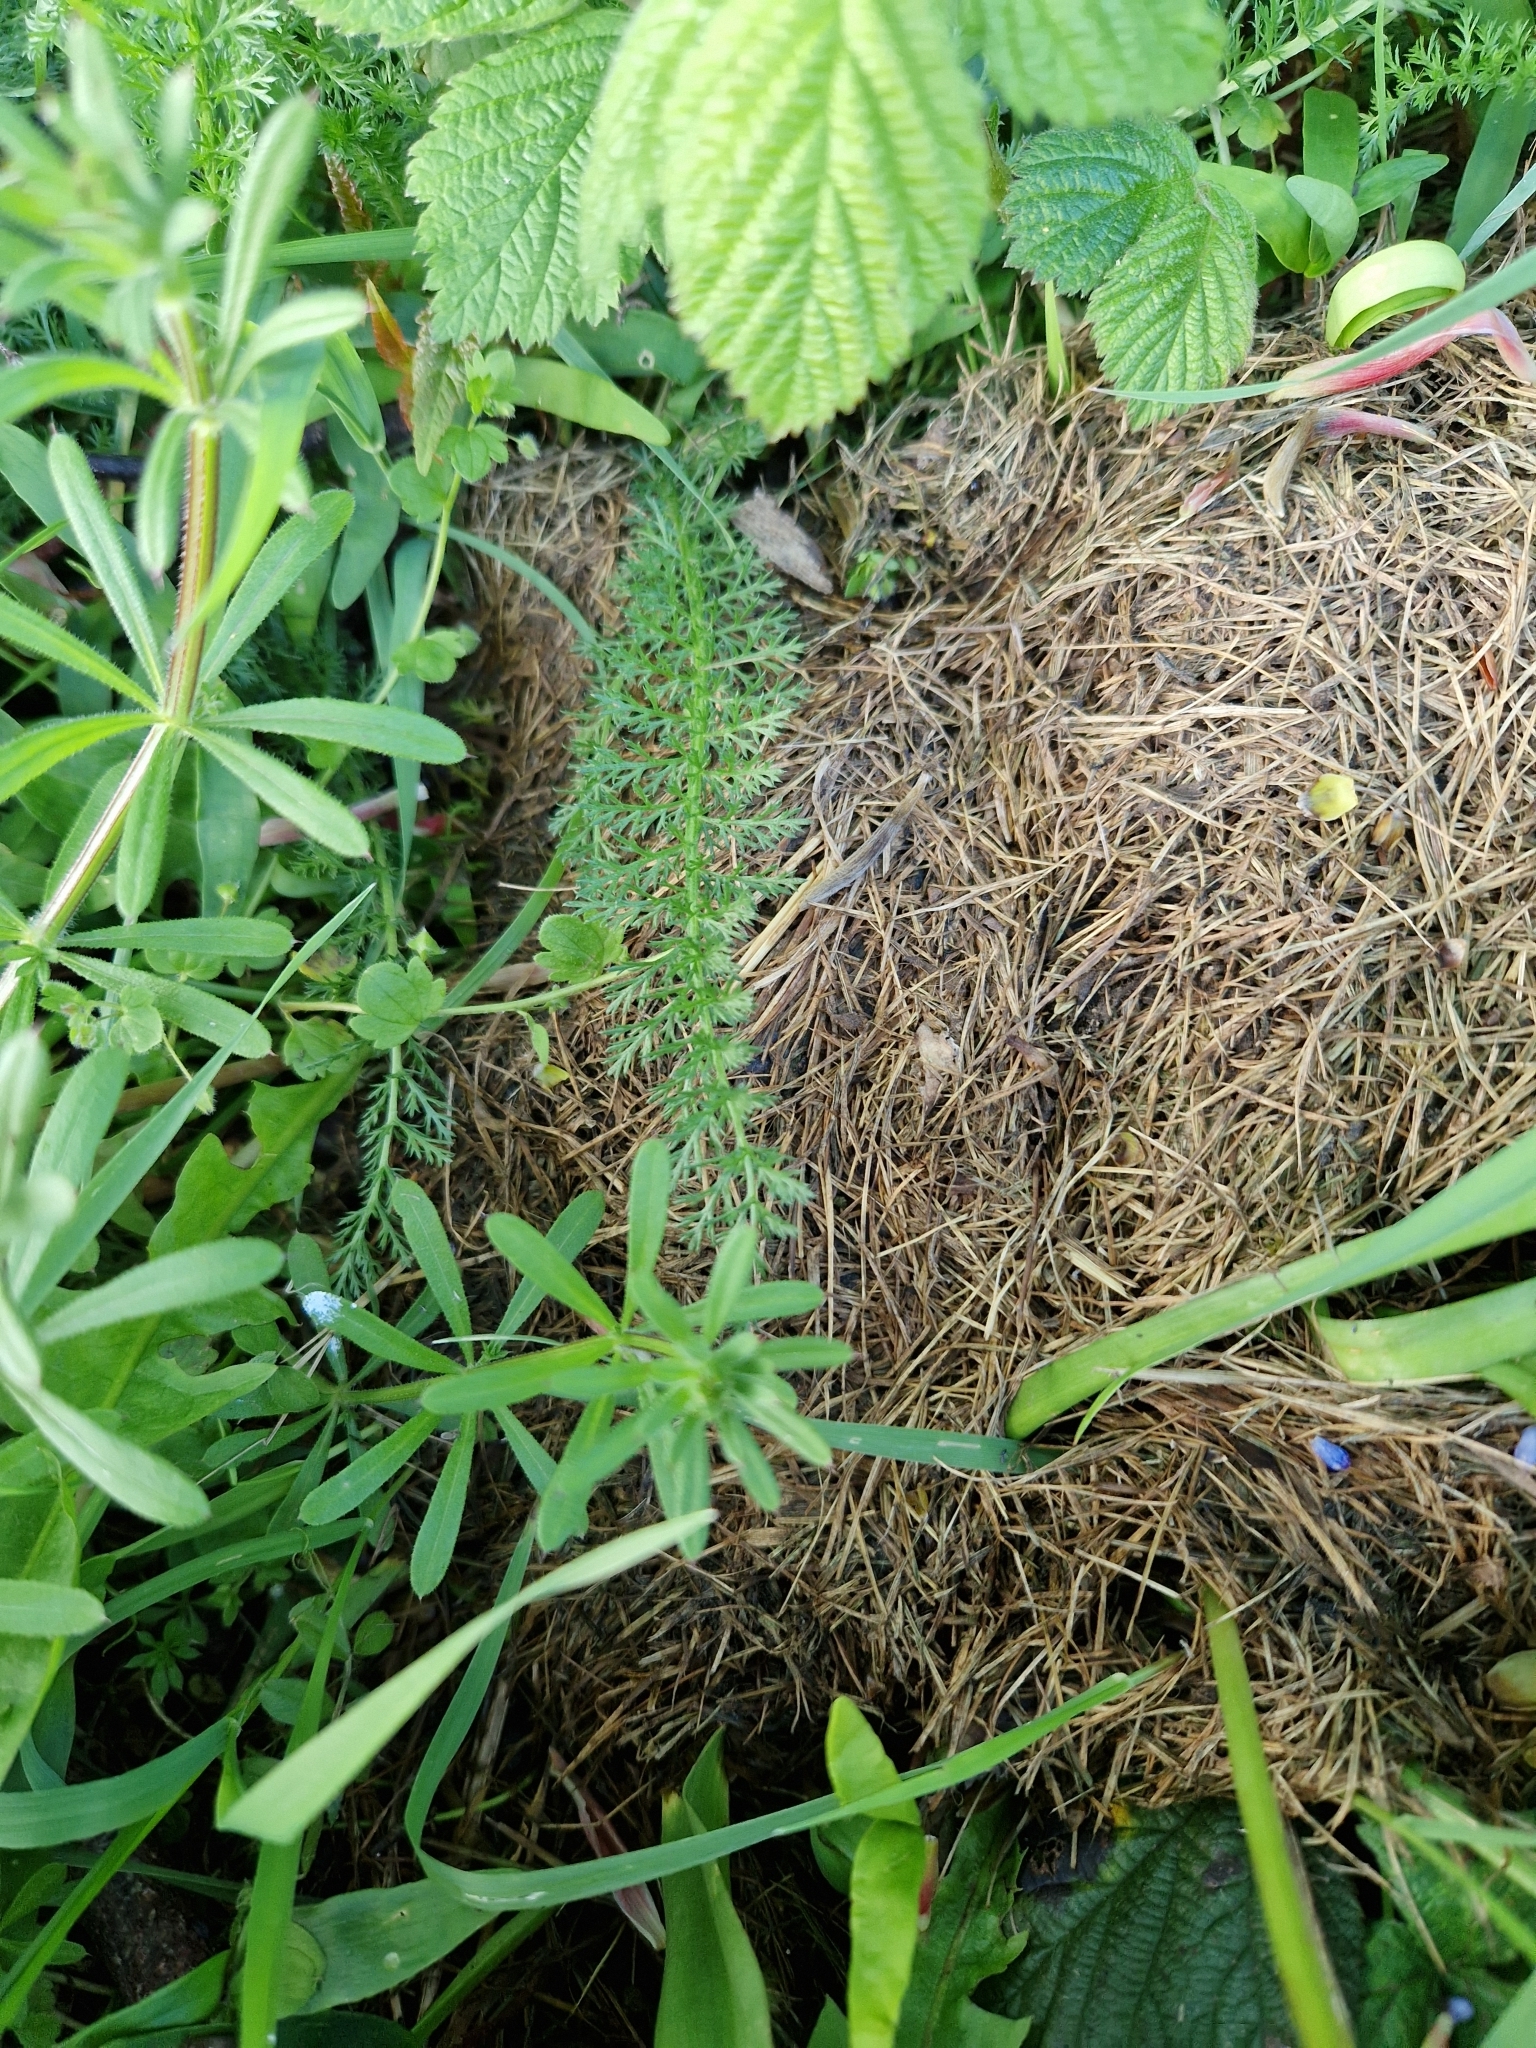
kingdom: Plantae
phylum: Tracheophyta
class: Magnoliopsida
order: Asterales
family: Asteraceae
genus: Achillea
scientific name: Achillea millefolium
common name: Yarrow
